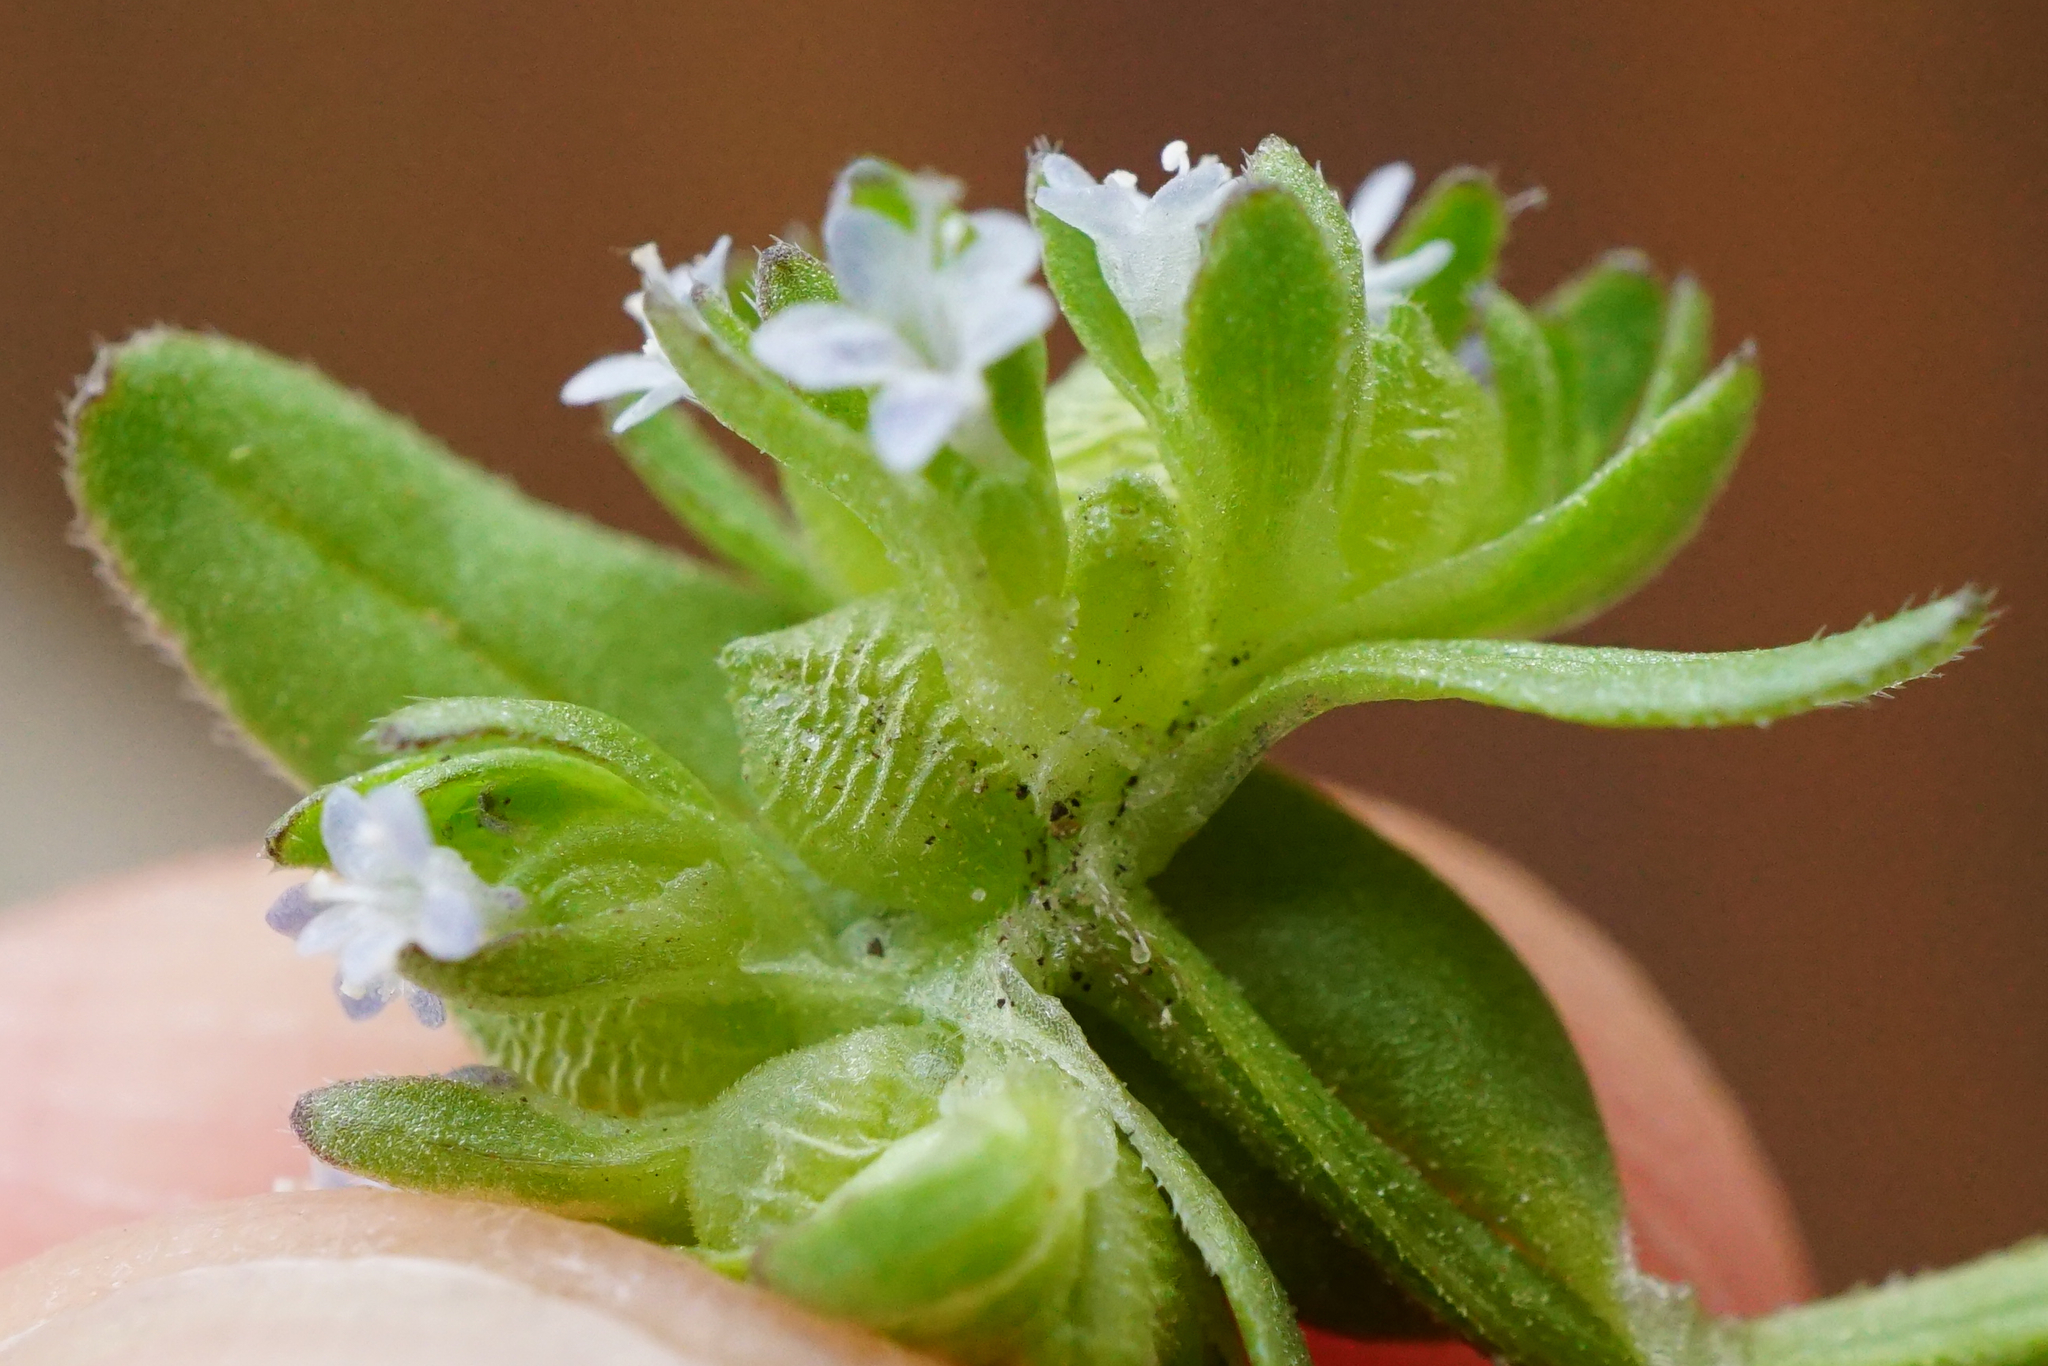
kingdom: Plantae
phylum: Tracheophyta
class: Magnoliopsida
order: Dipsacales
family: Caprifoliaceae
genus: Valerianella
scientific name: Valerianella locusta
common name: Common cornsalad
